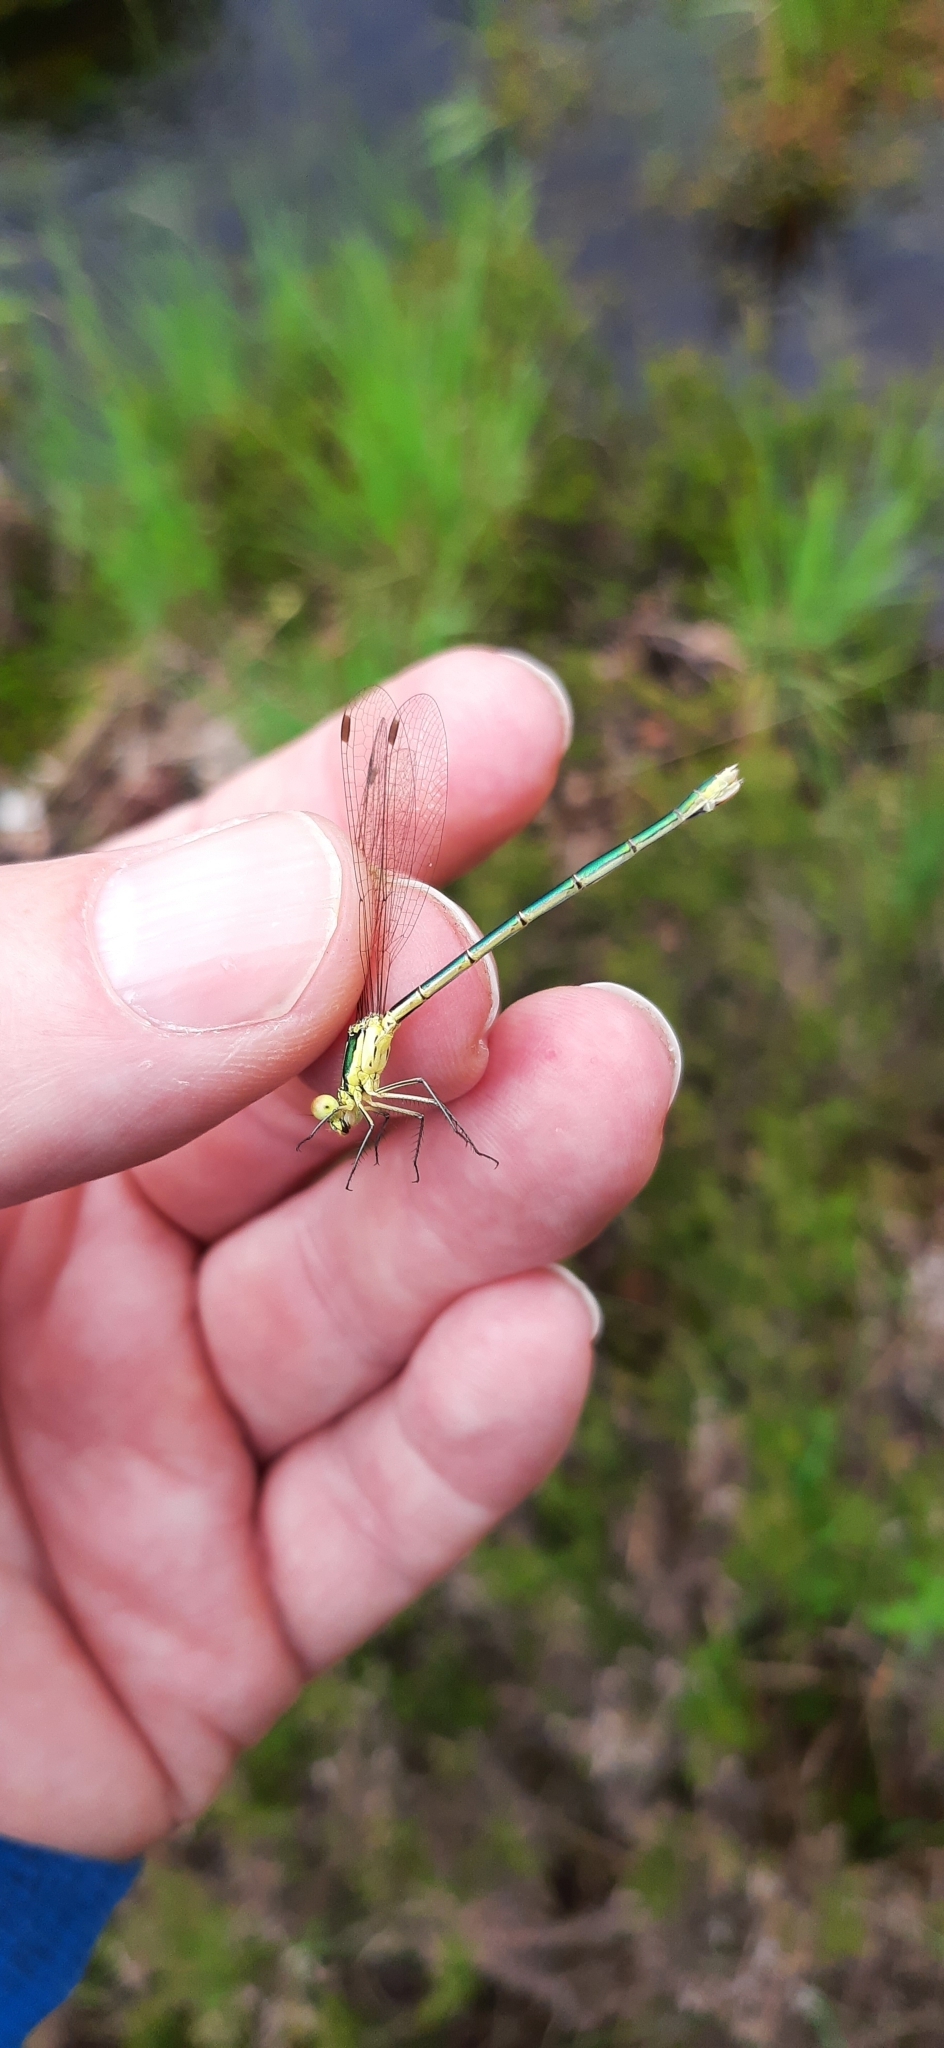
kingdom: Animalia
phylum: Arthropoda
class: Insecta
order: Odonata
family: Lestidae
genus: Lestes
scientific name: Lestes virens
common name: Small emerald spreadwing
